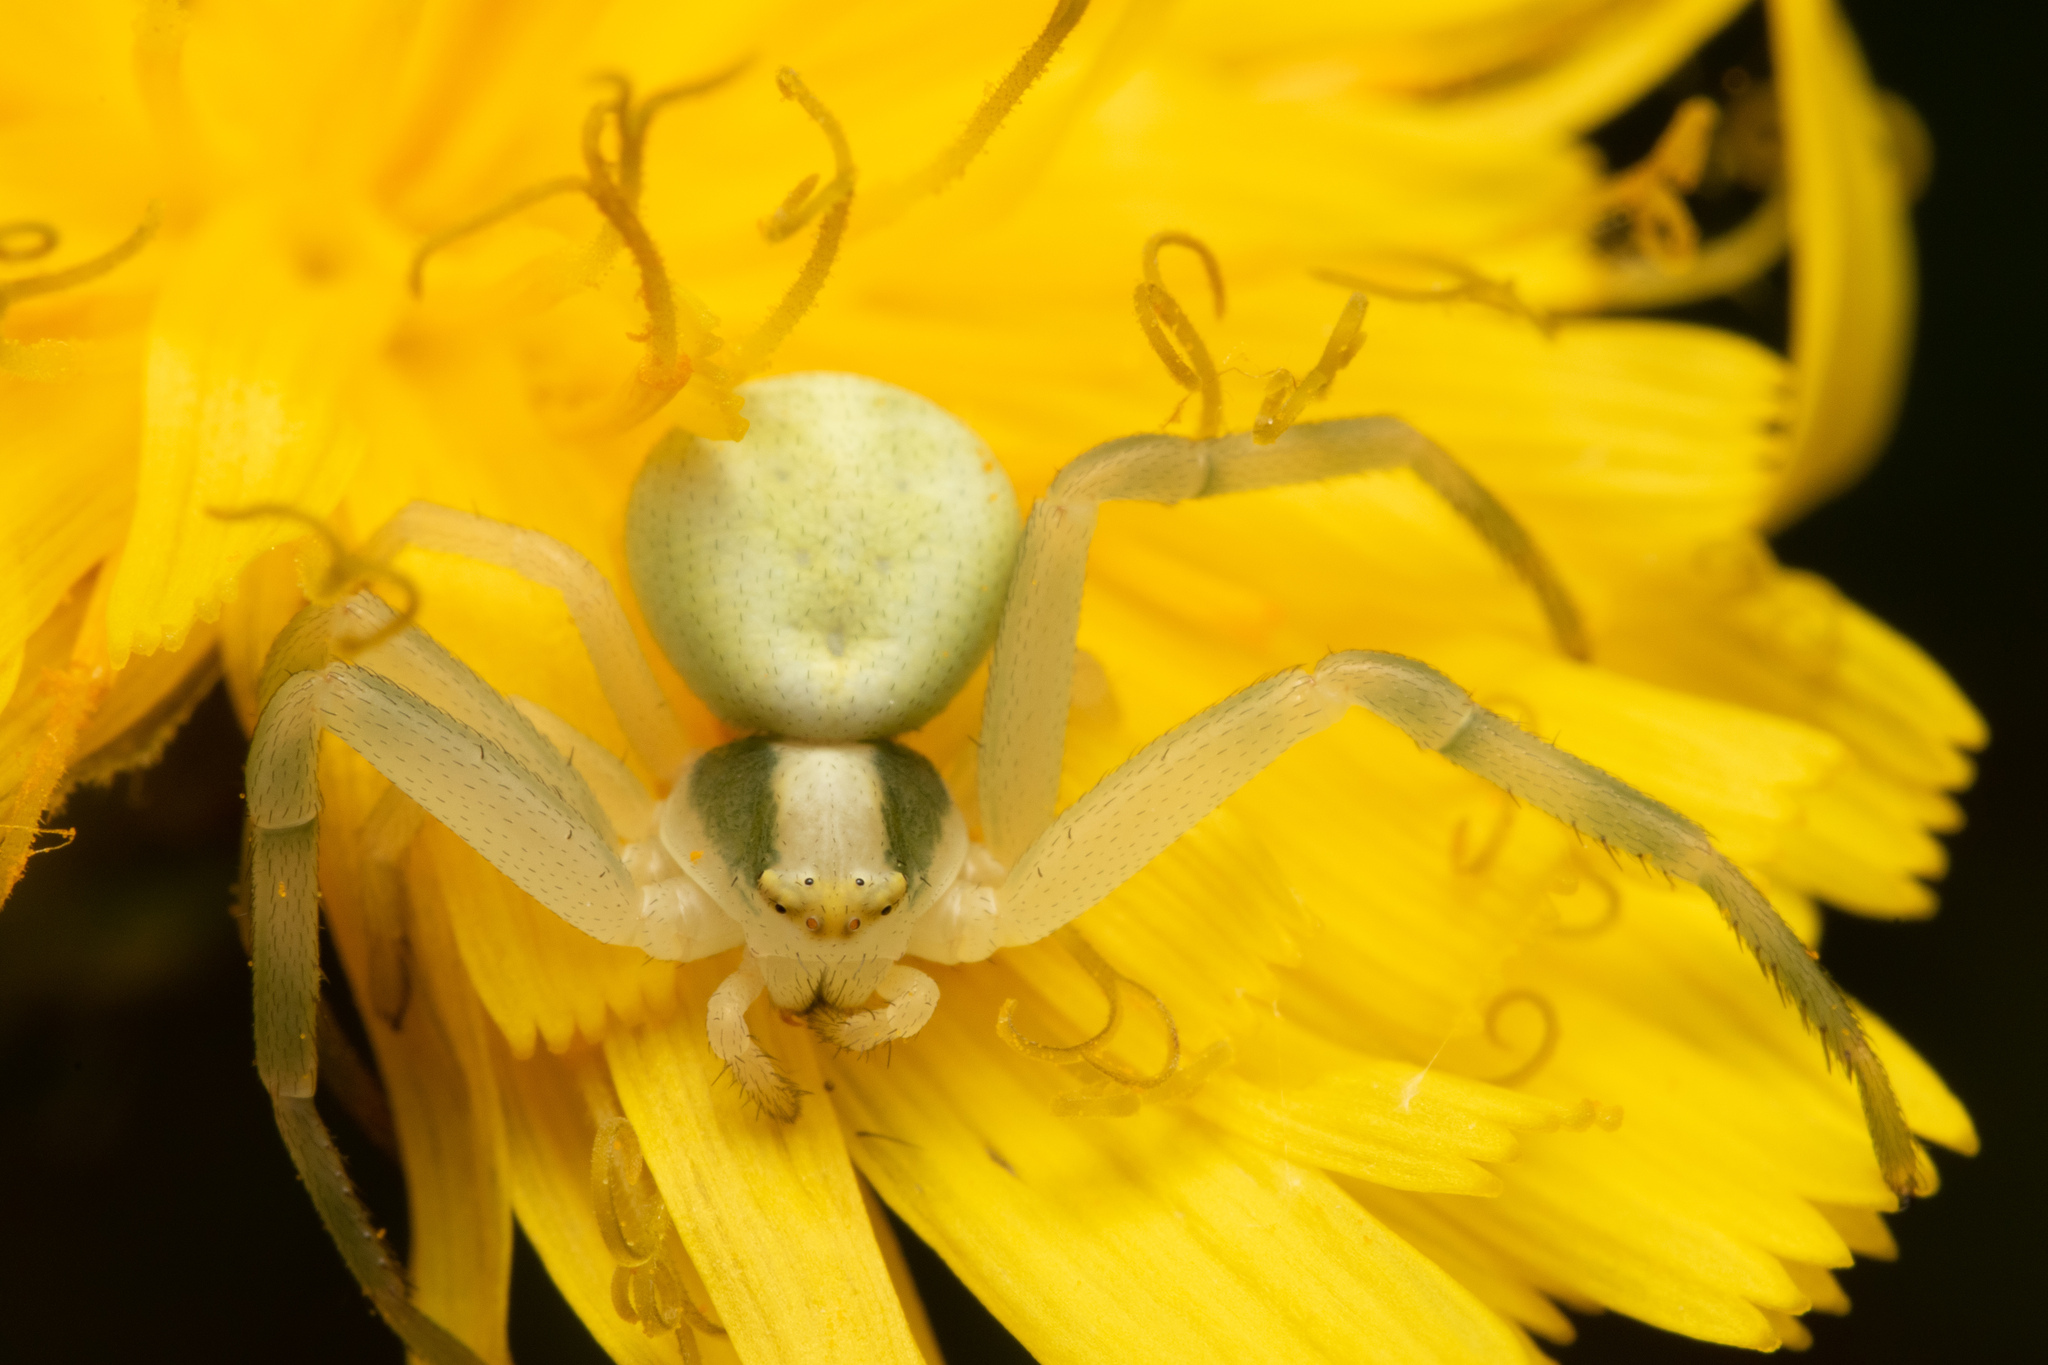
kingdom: Animalia
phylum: Arthropoda
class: Arachnida
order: Araneae
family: Thomisidae
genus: Misumena
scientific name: Misumena vatia
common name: Goldenrod crab spider
